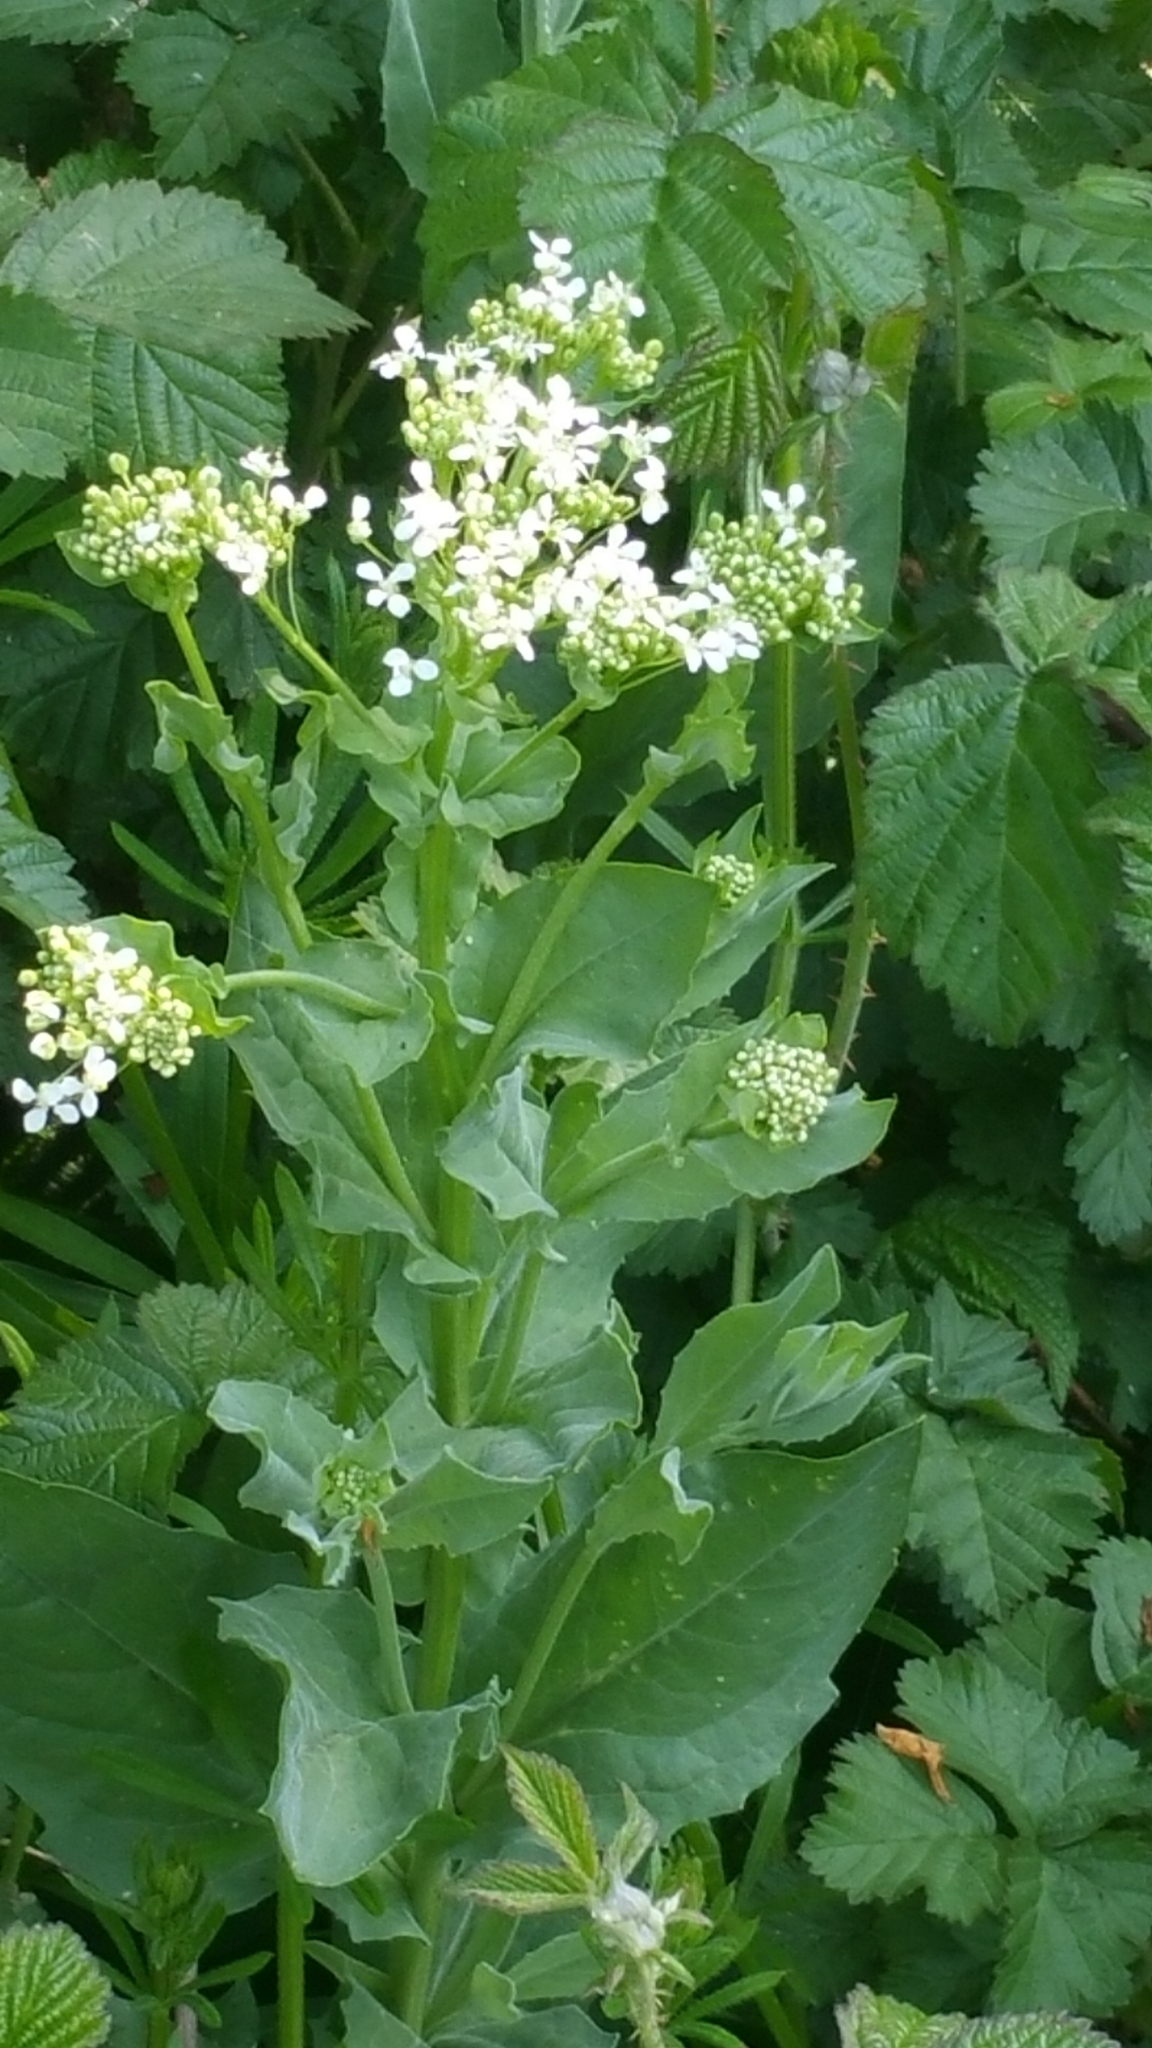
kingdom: Plantae
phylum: Tracheophyta
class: Magnoliopsida
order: Brassicales
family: Brassicaceae
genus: Lepidium
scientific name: Lepidium draba
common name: Hoary cress
